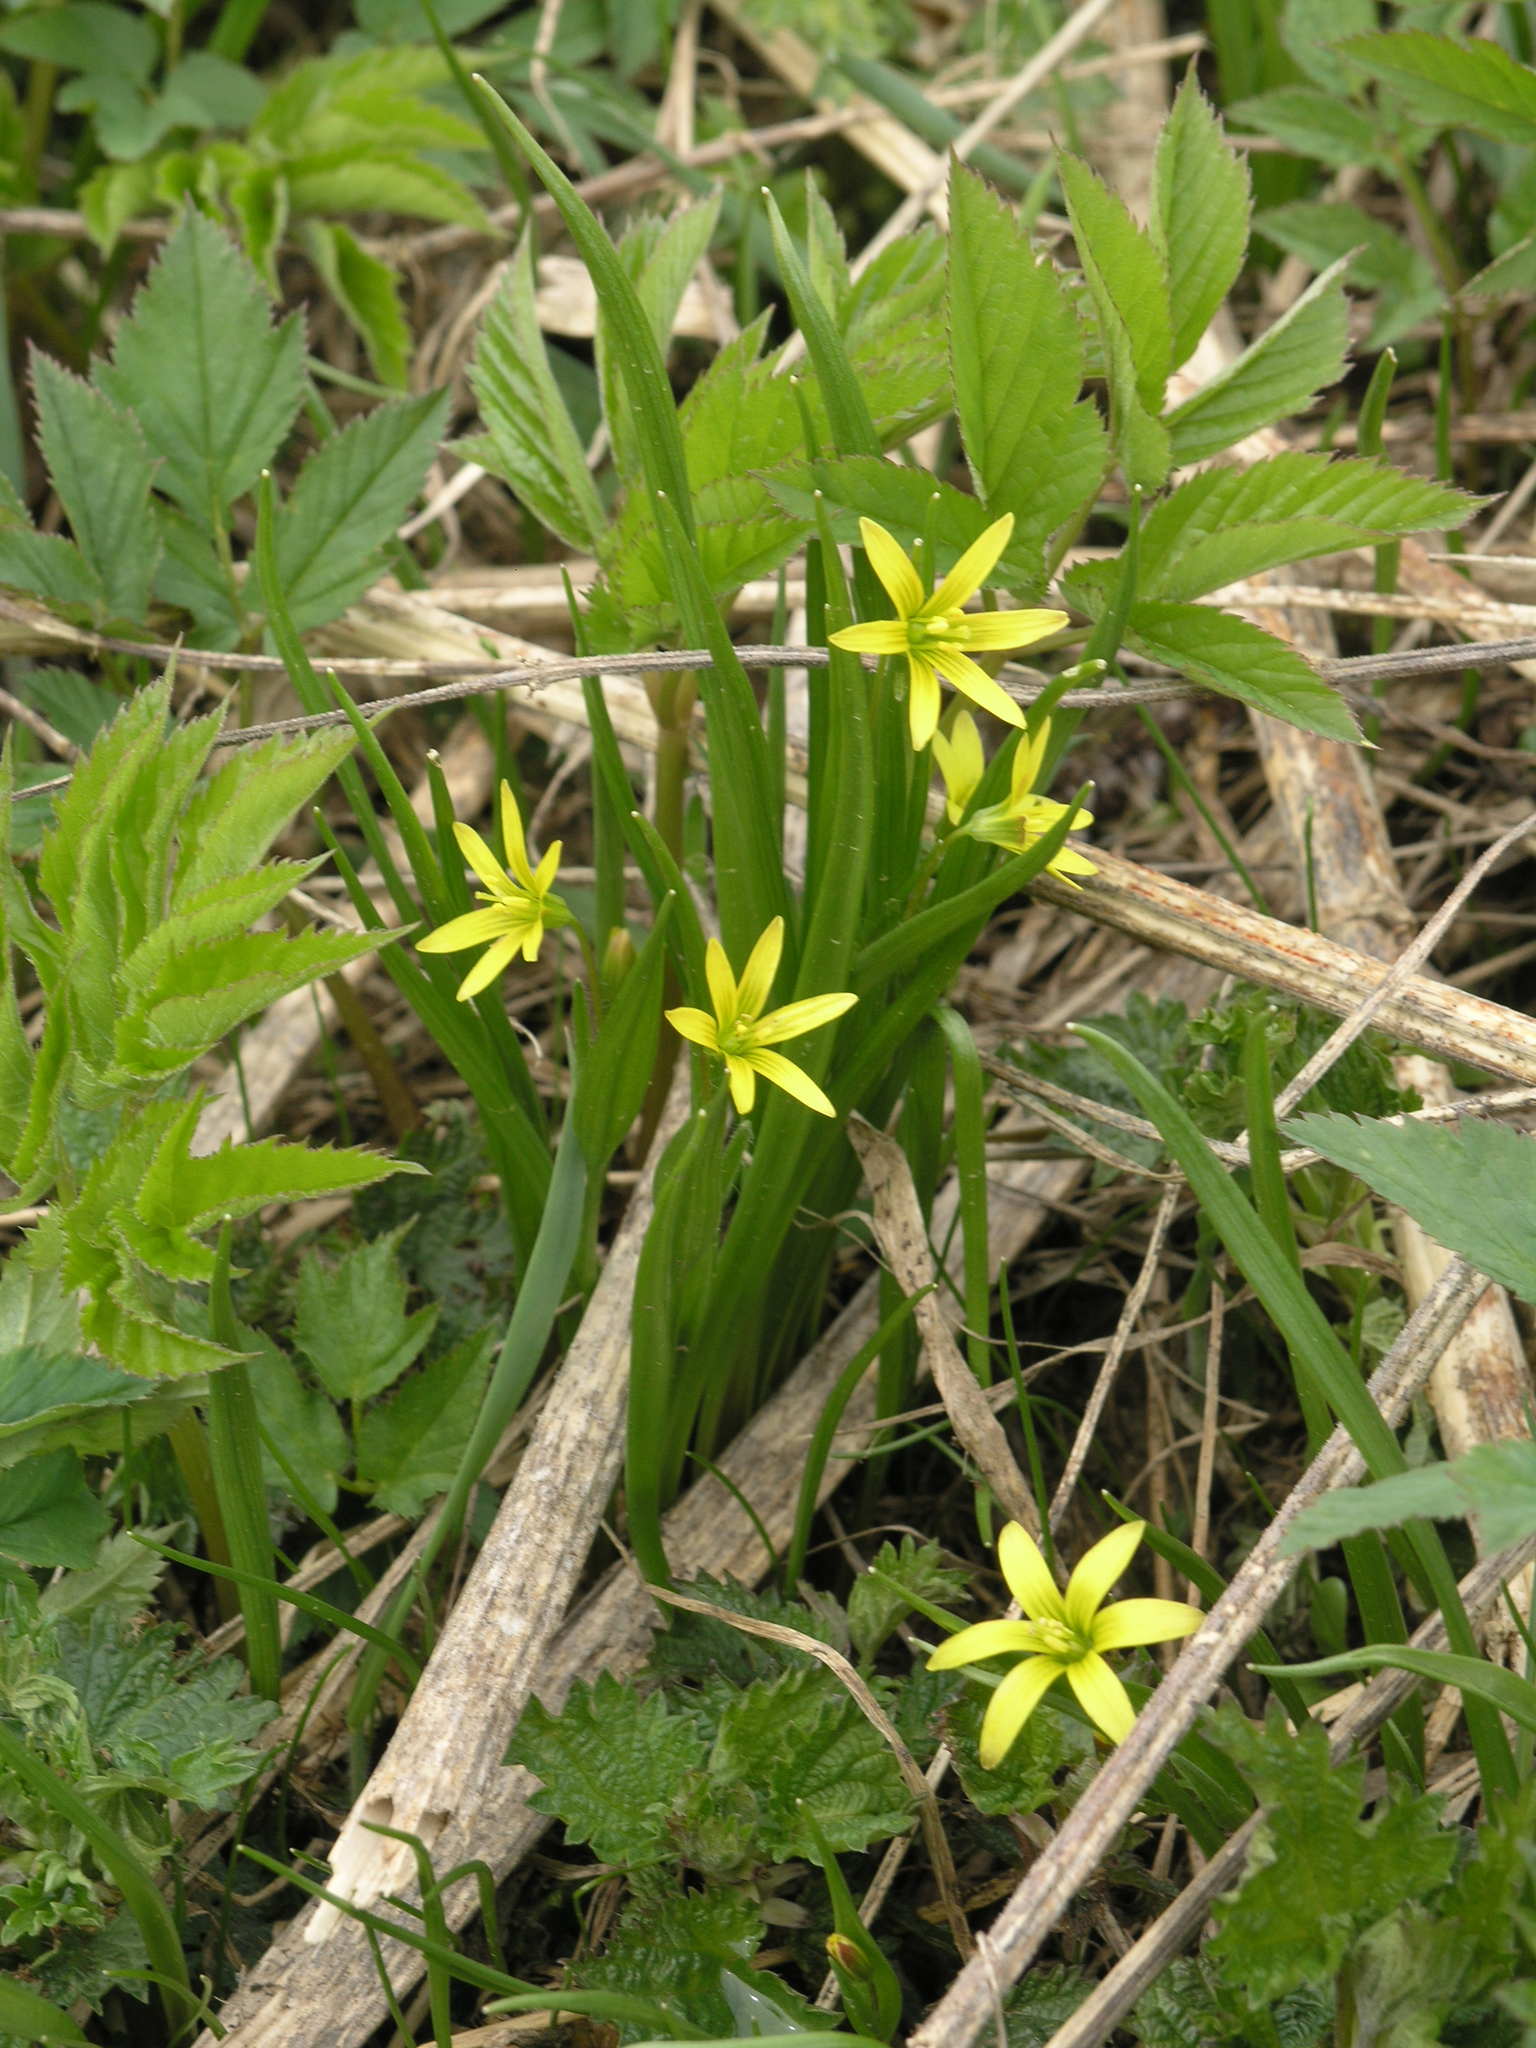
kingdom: Plantae
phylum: Tracheophyta
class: Liliopsida
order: Liliales
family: Liliaceae
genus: Gagea
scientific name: Gagea granulosa
